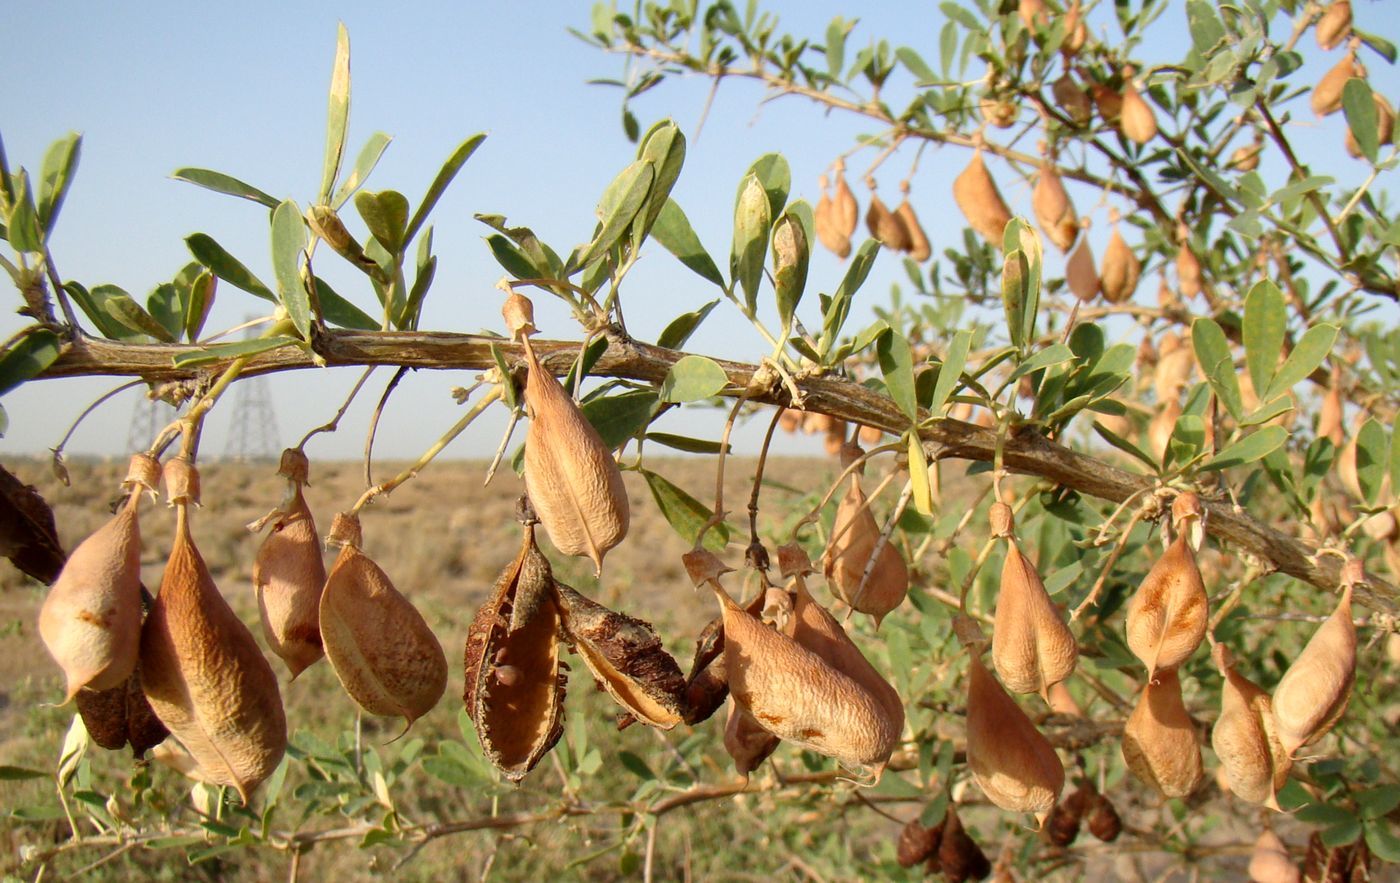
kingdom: Plantae
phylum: Tracheophyta
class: Magnoliopsida
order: Fabales
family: Fabaceae
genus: Caragana
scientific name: Caragana halodendron
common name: Siberian salt-tree
